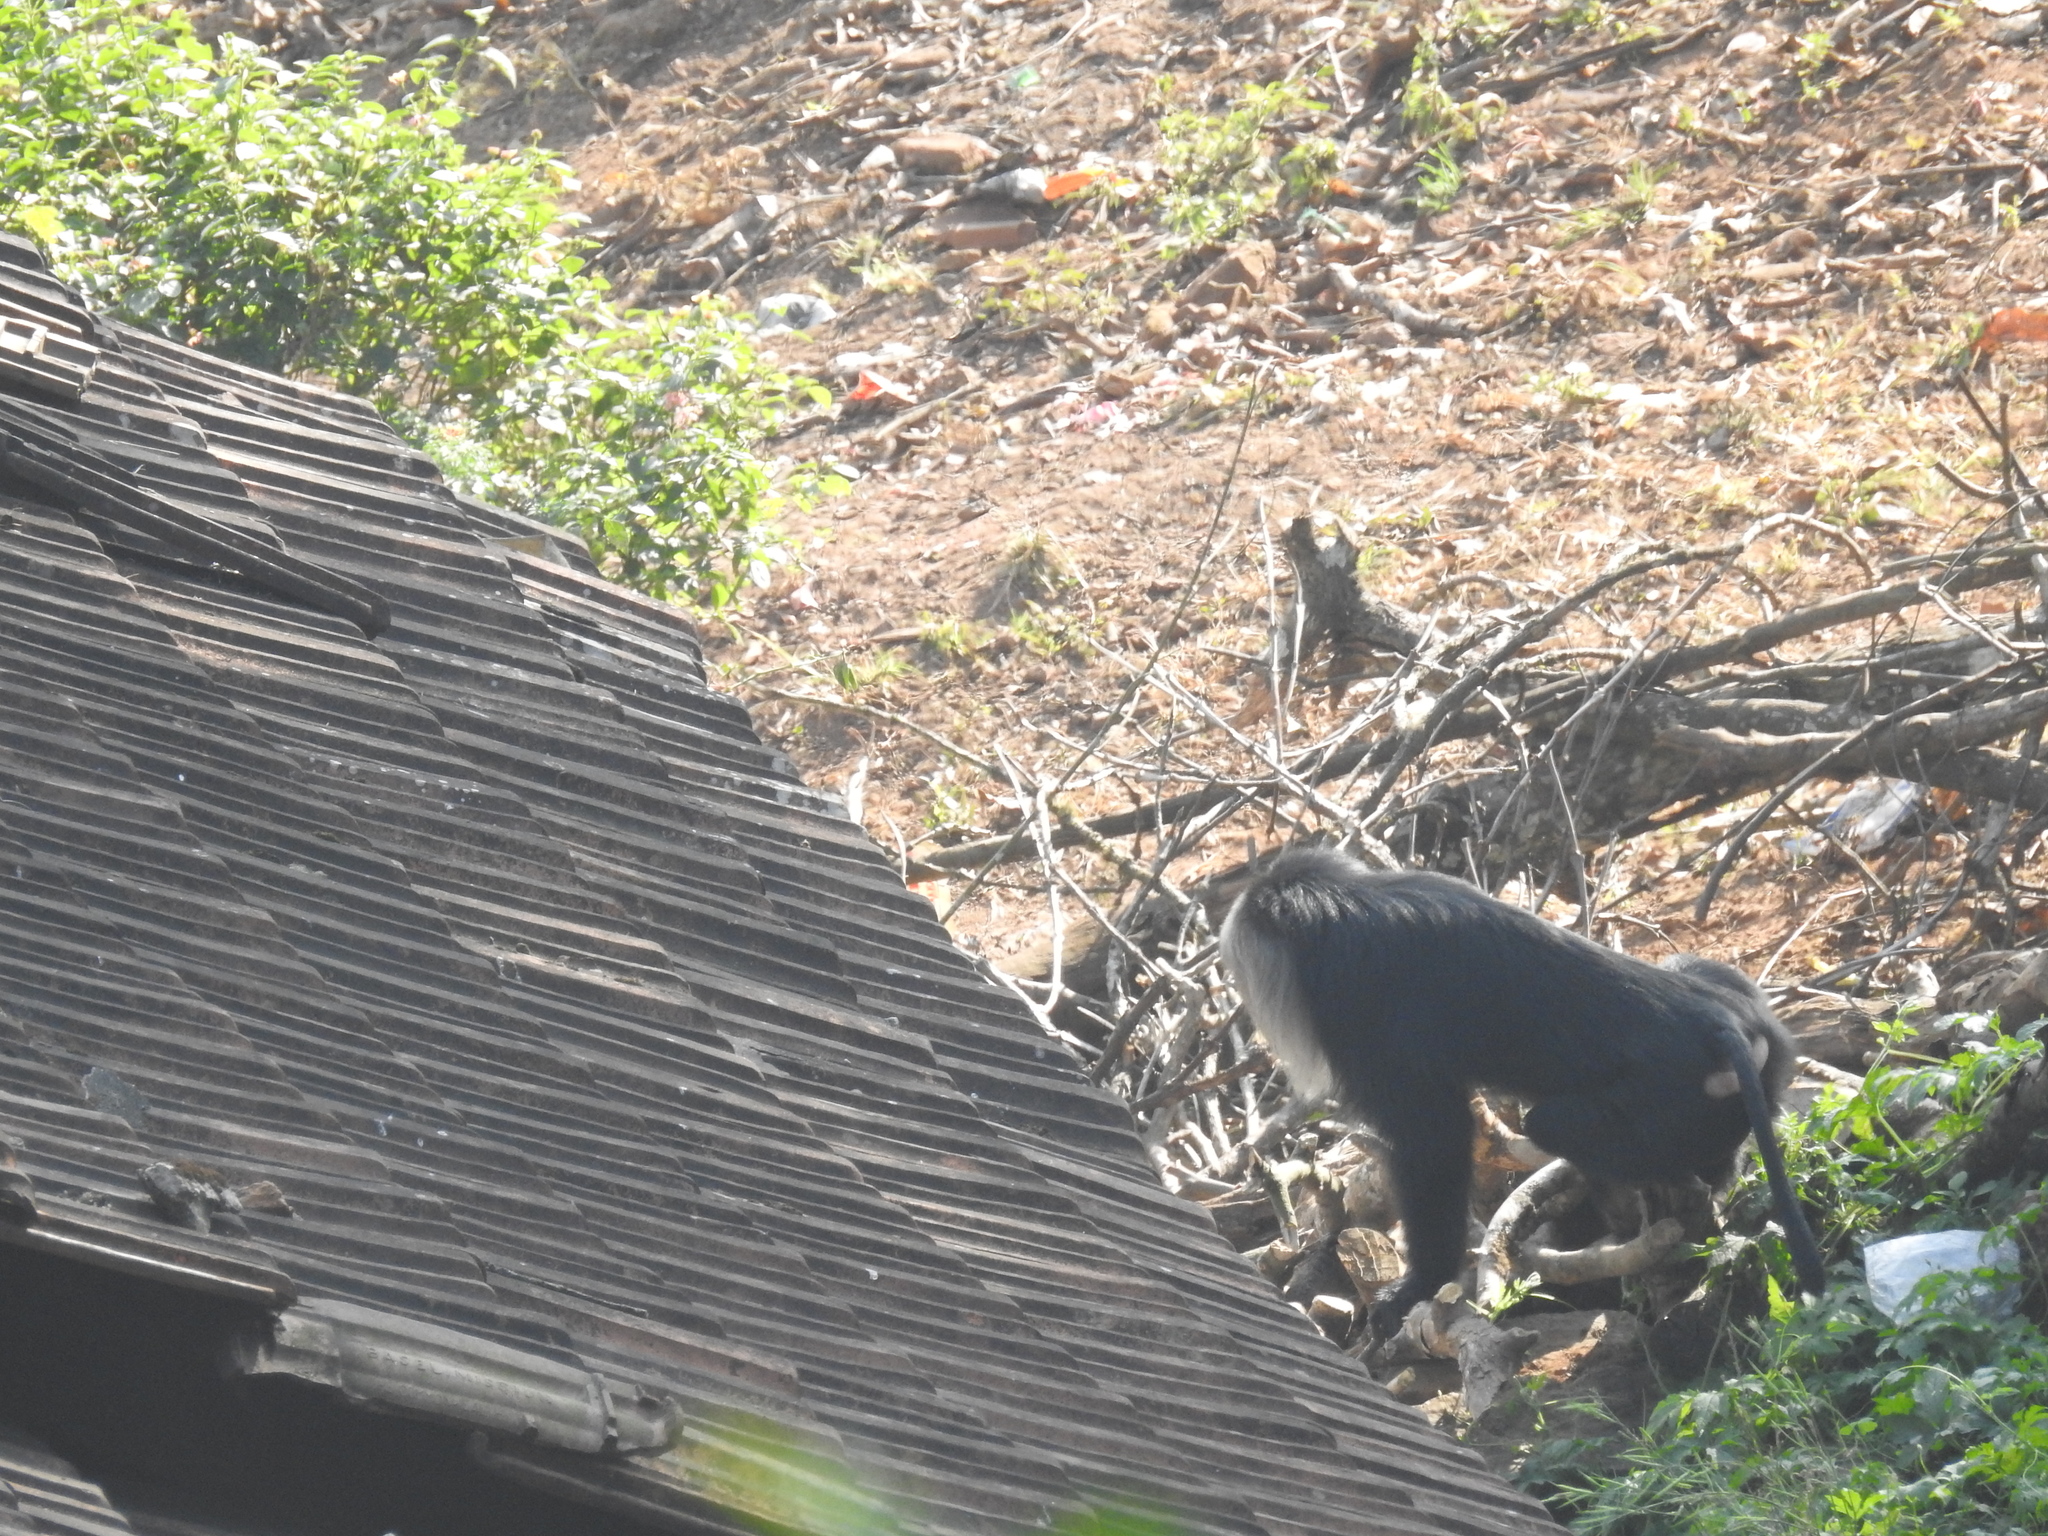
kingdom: Animalia
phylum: Chordata
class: Mammalia
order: Primates
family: Cercopithecidae
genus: Macaca
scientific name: Macaca silenus
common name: Lion-tailed macaque
